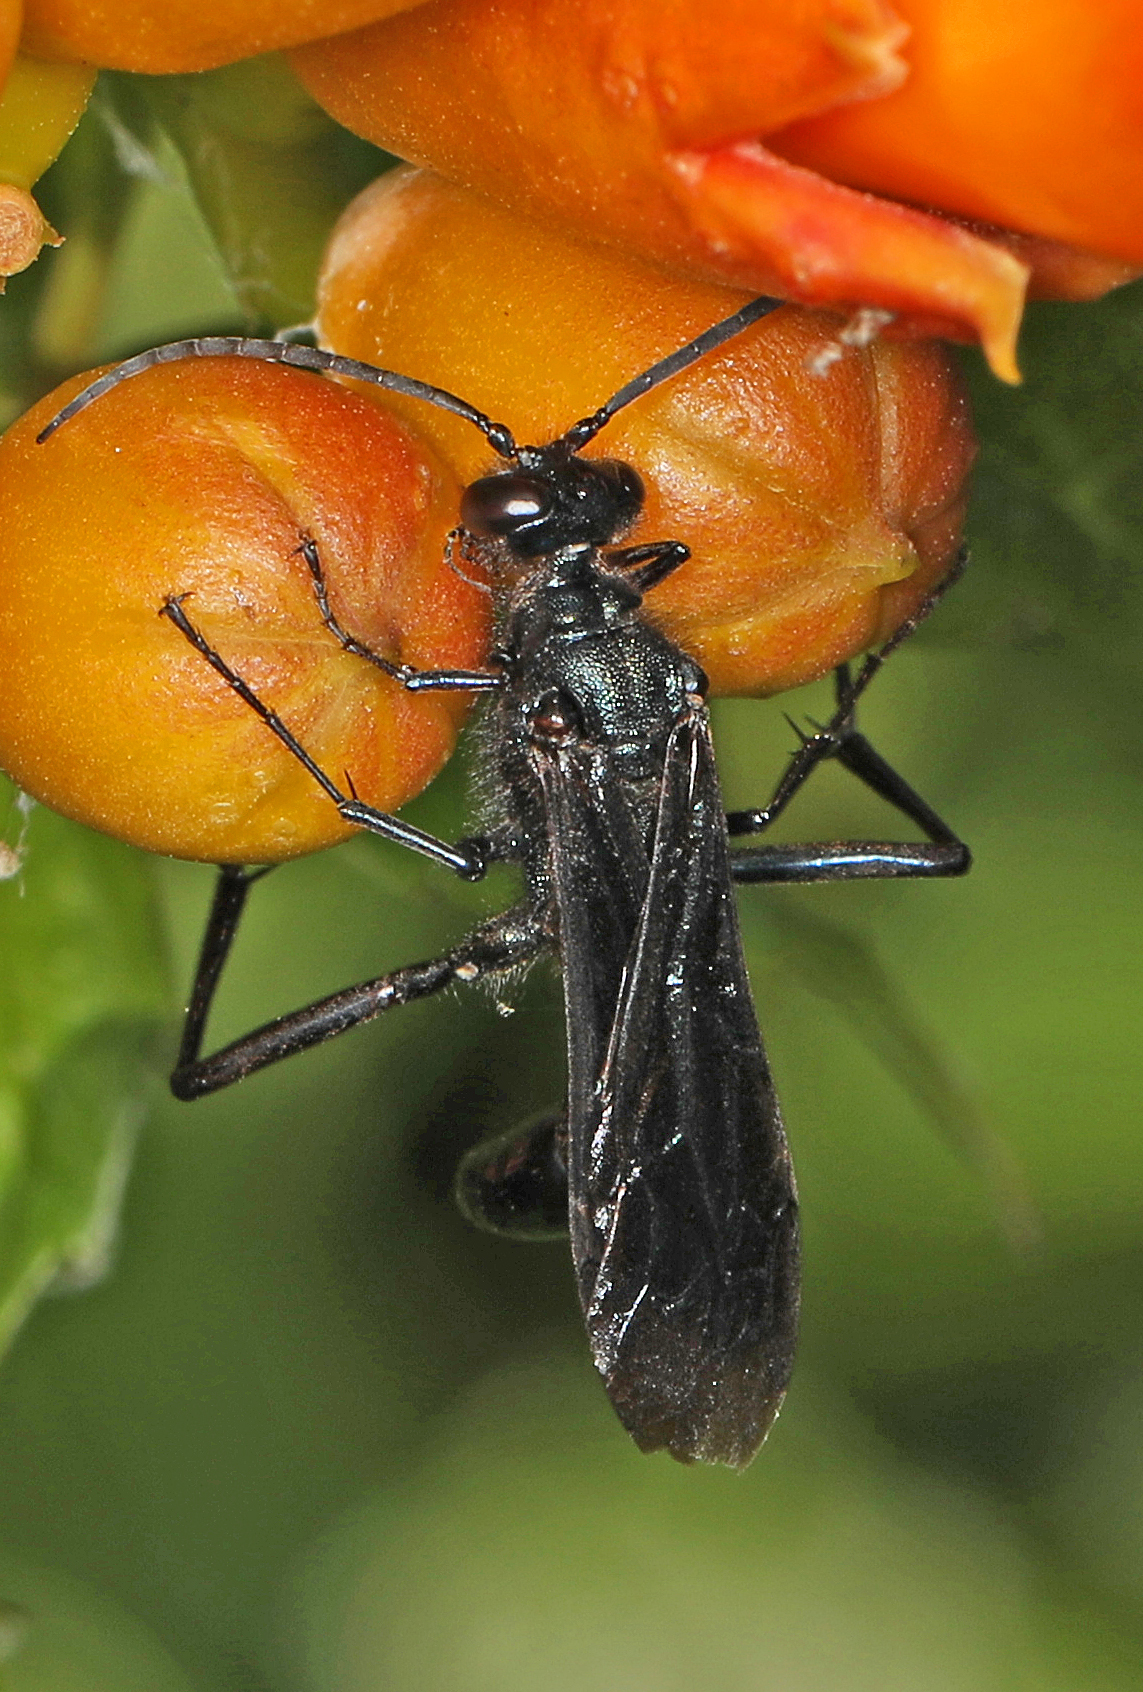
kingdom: Animalia
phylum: Arthropoda
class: Insecta
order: Hymenoptera
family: Sphecidae
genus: Chalybion
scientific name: Chalybion californicum
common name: Mud dauber
